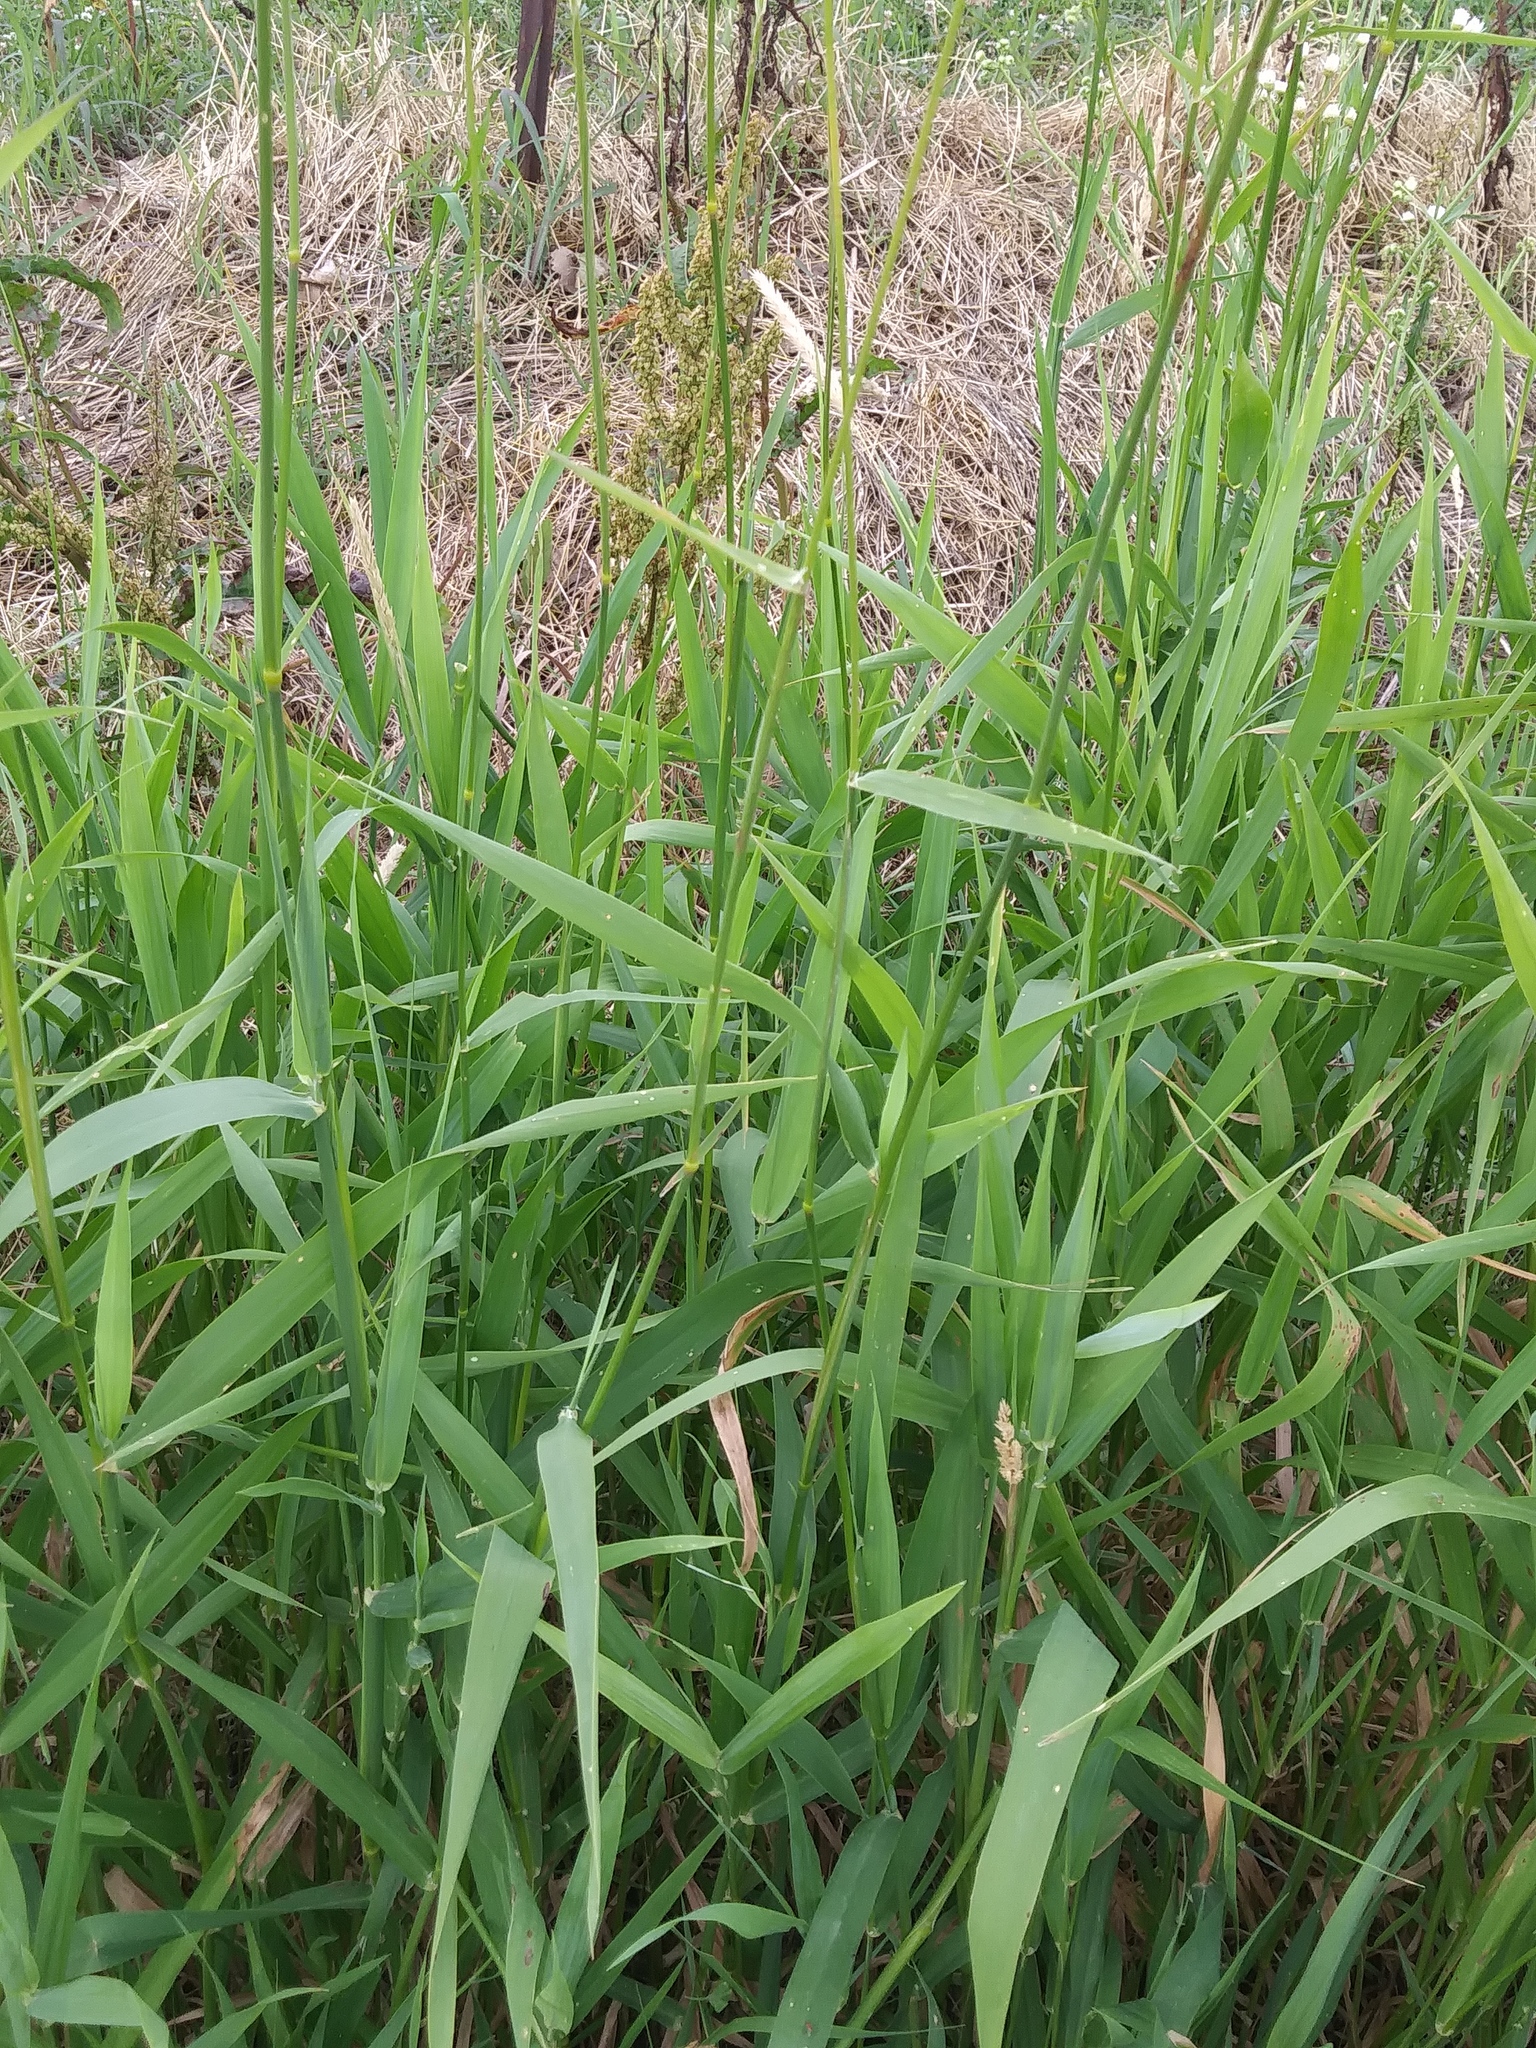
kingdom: Plantae
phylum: Tracheophyta
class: Liliopsida
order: Poales
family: Poaceae
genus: Phalaris
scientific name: Phalaris arundinacea
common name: Reed canary-grass
